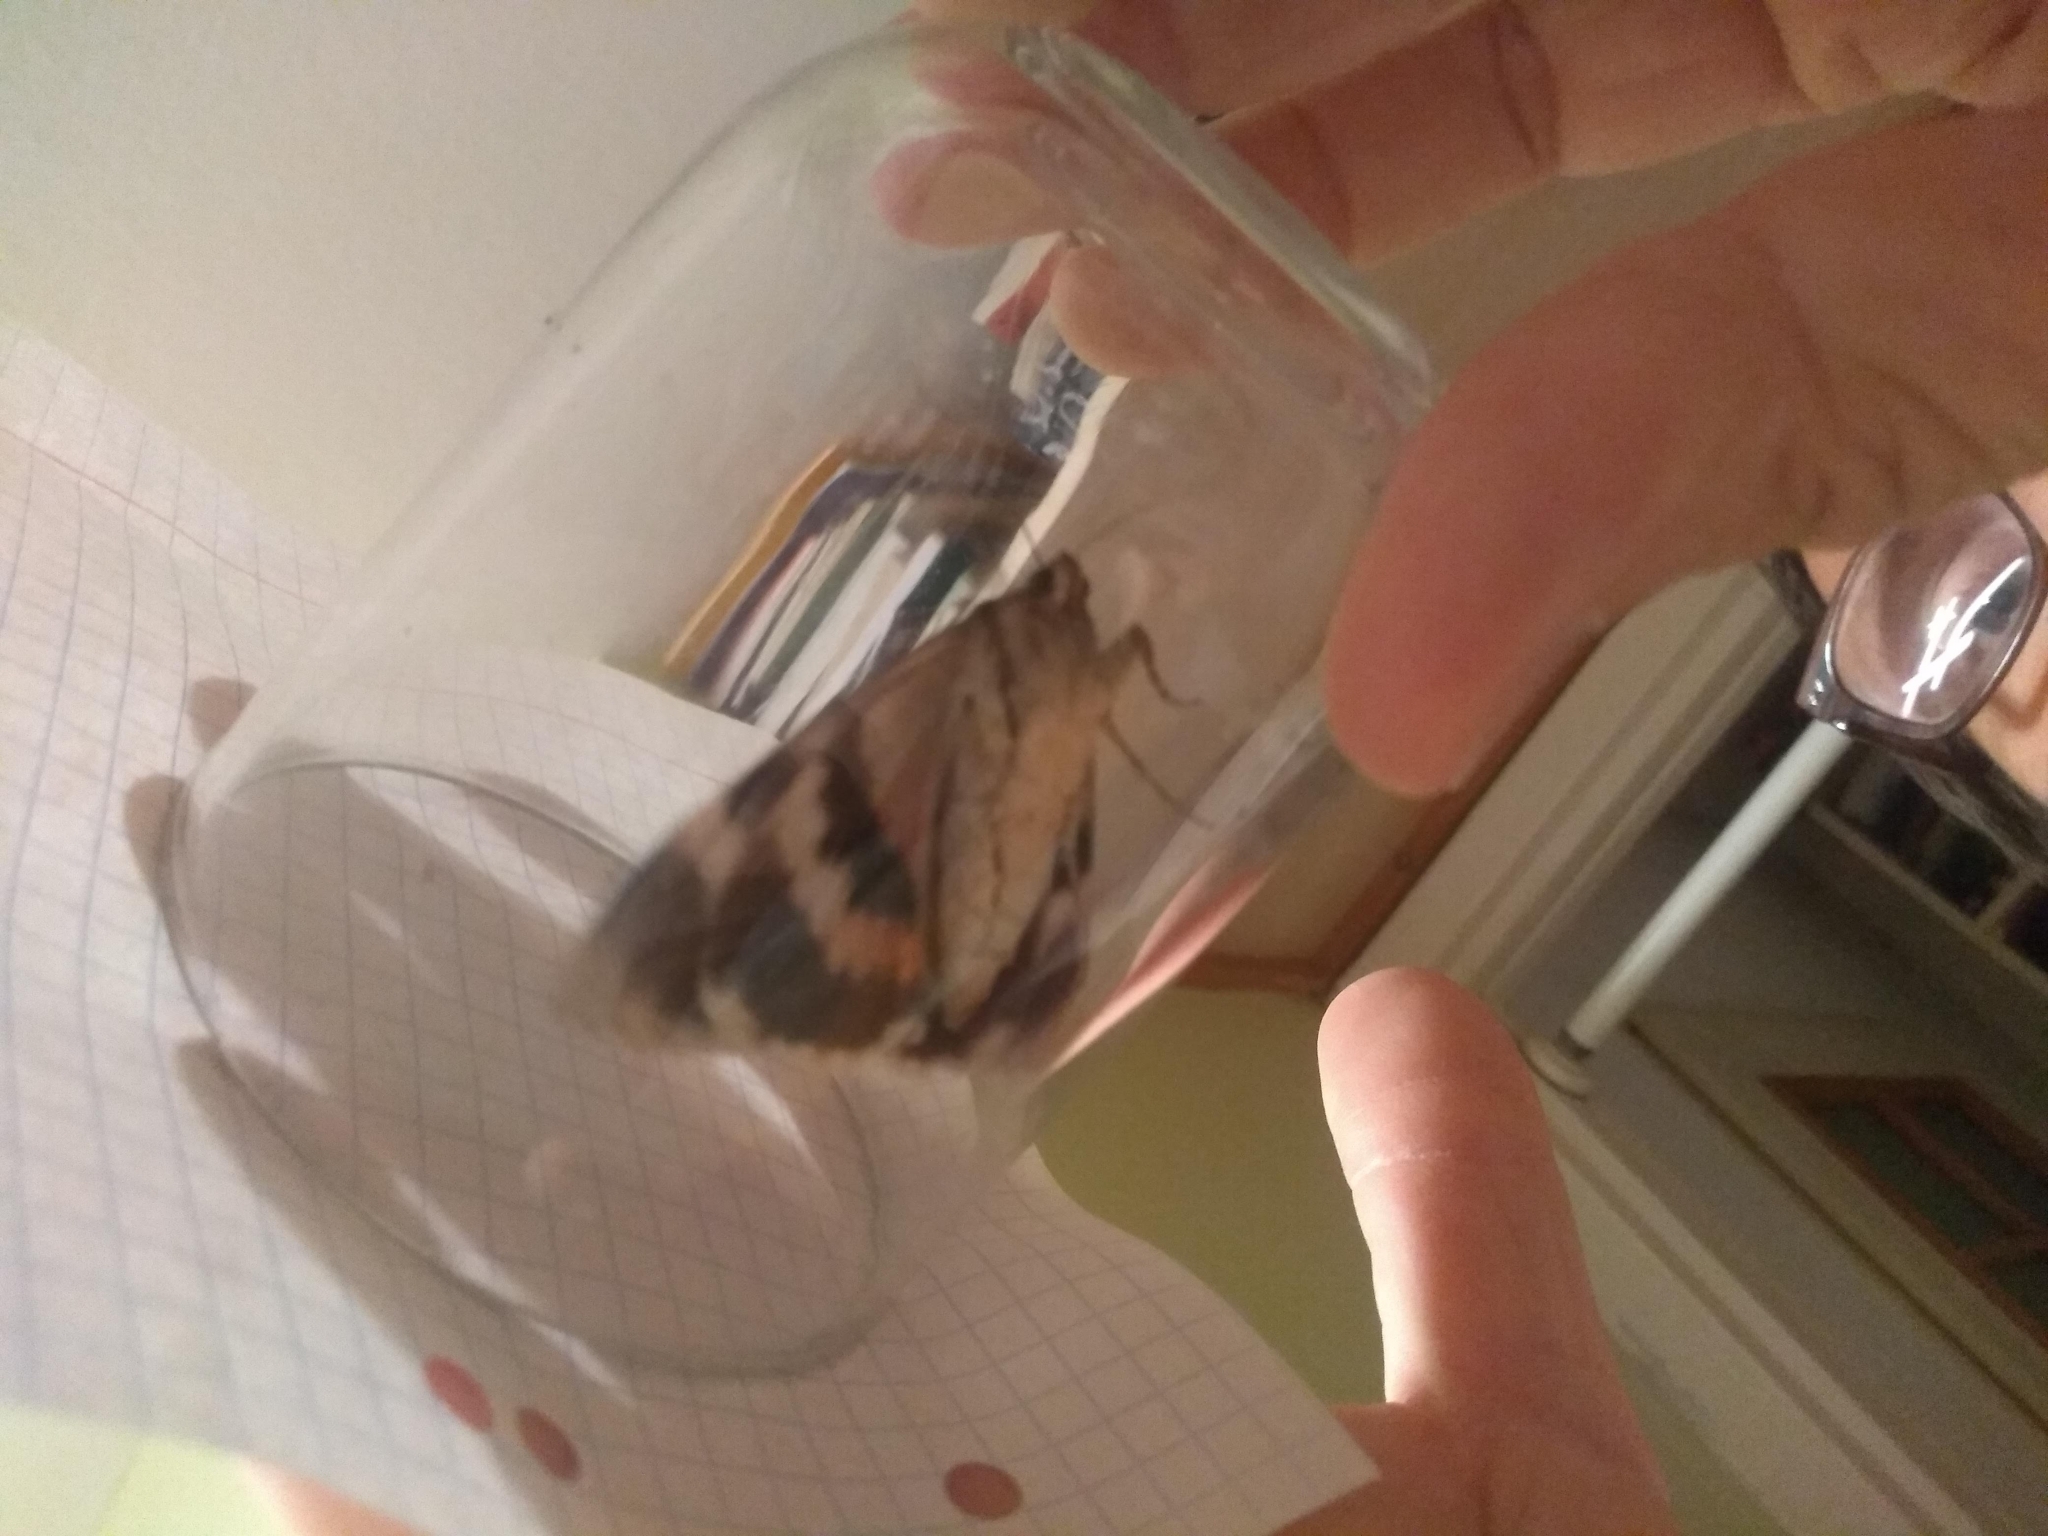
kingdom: Animalia
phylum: Arthropoda
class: Insecta
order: Lepidoptera
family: Erebidae
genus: Catocala
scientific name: Catocala elocata
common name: French red underwing
